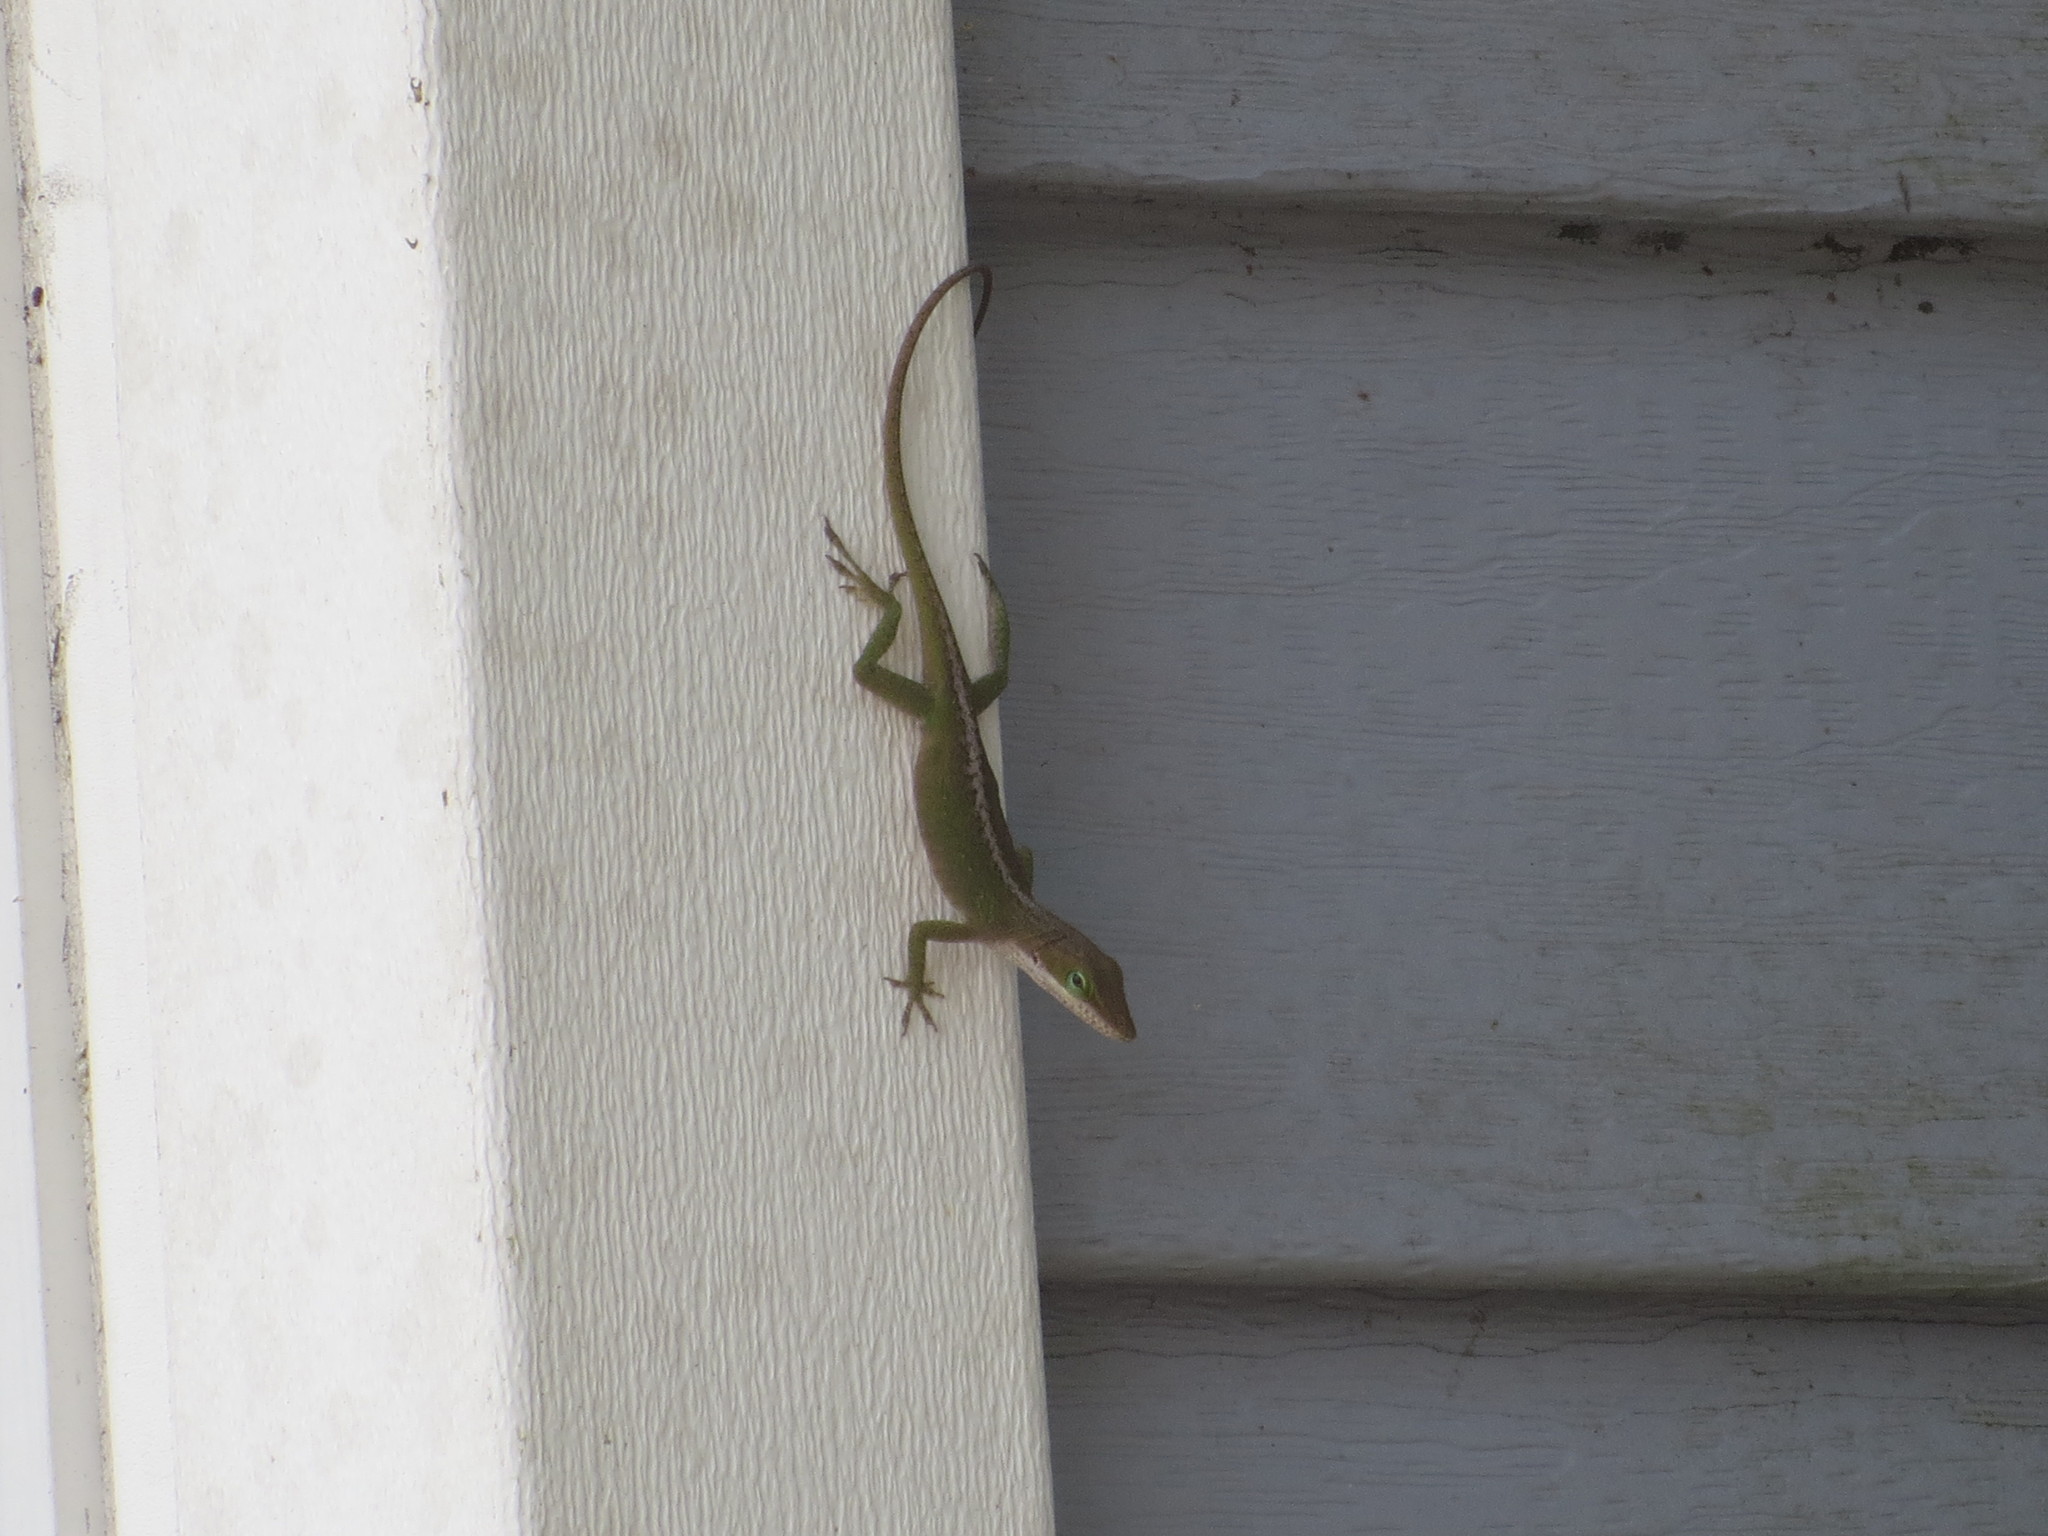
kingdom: Animalia
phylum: Chordata
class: Squamata
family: Dactyloidae
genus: Anolis
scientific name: Anolis carolinensis
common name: Green anole
